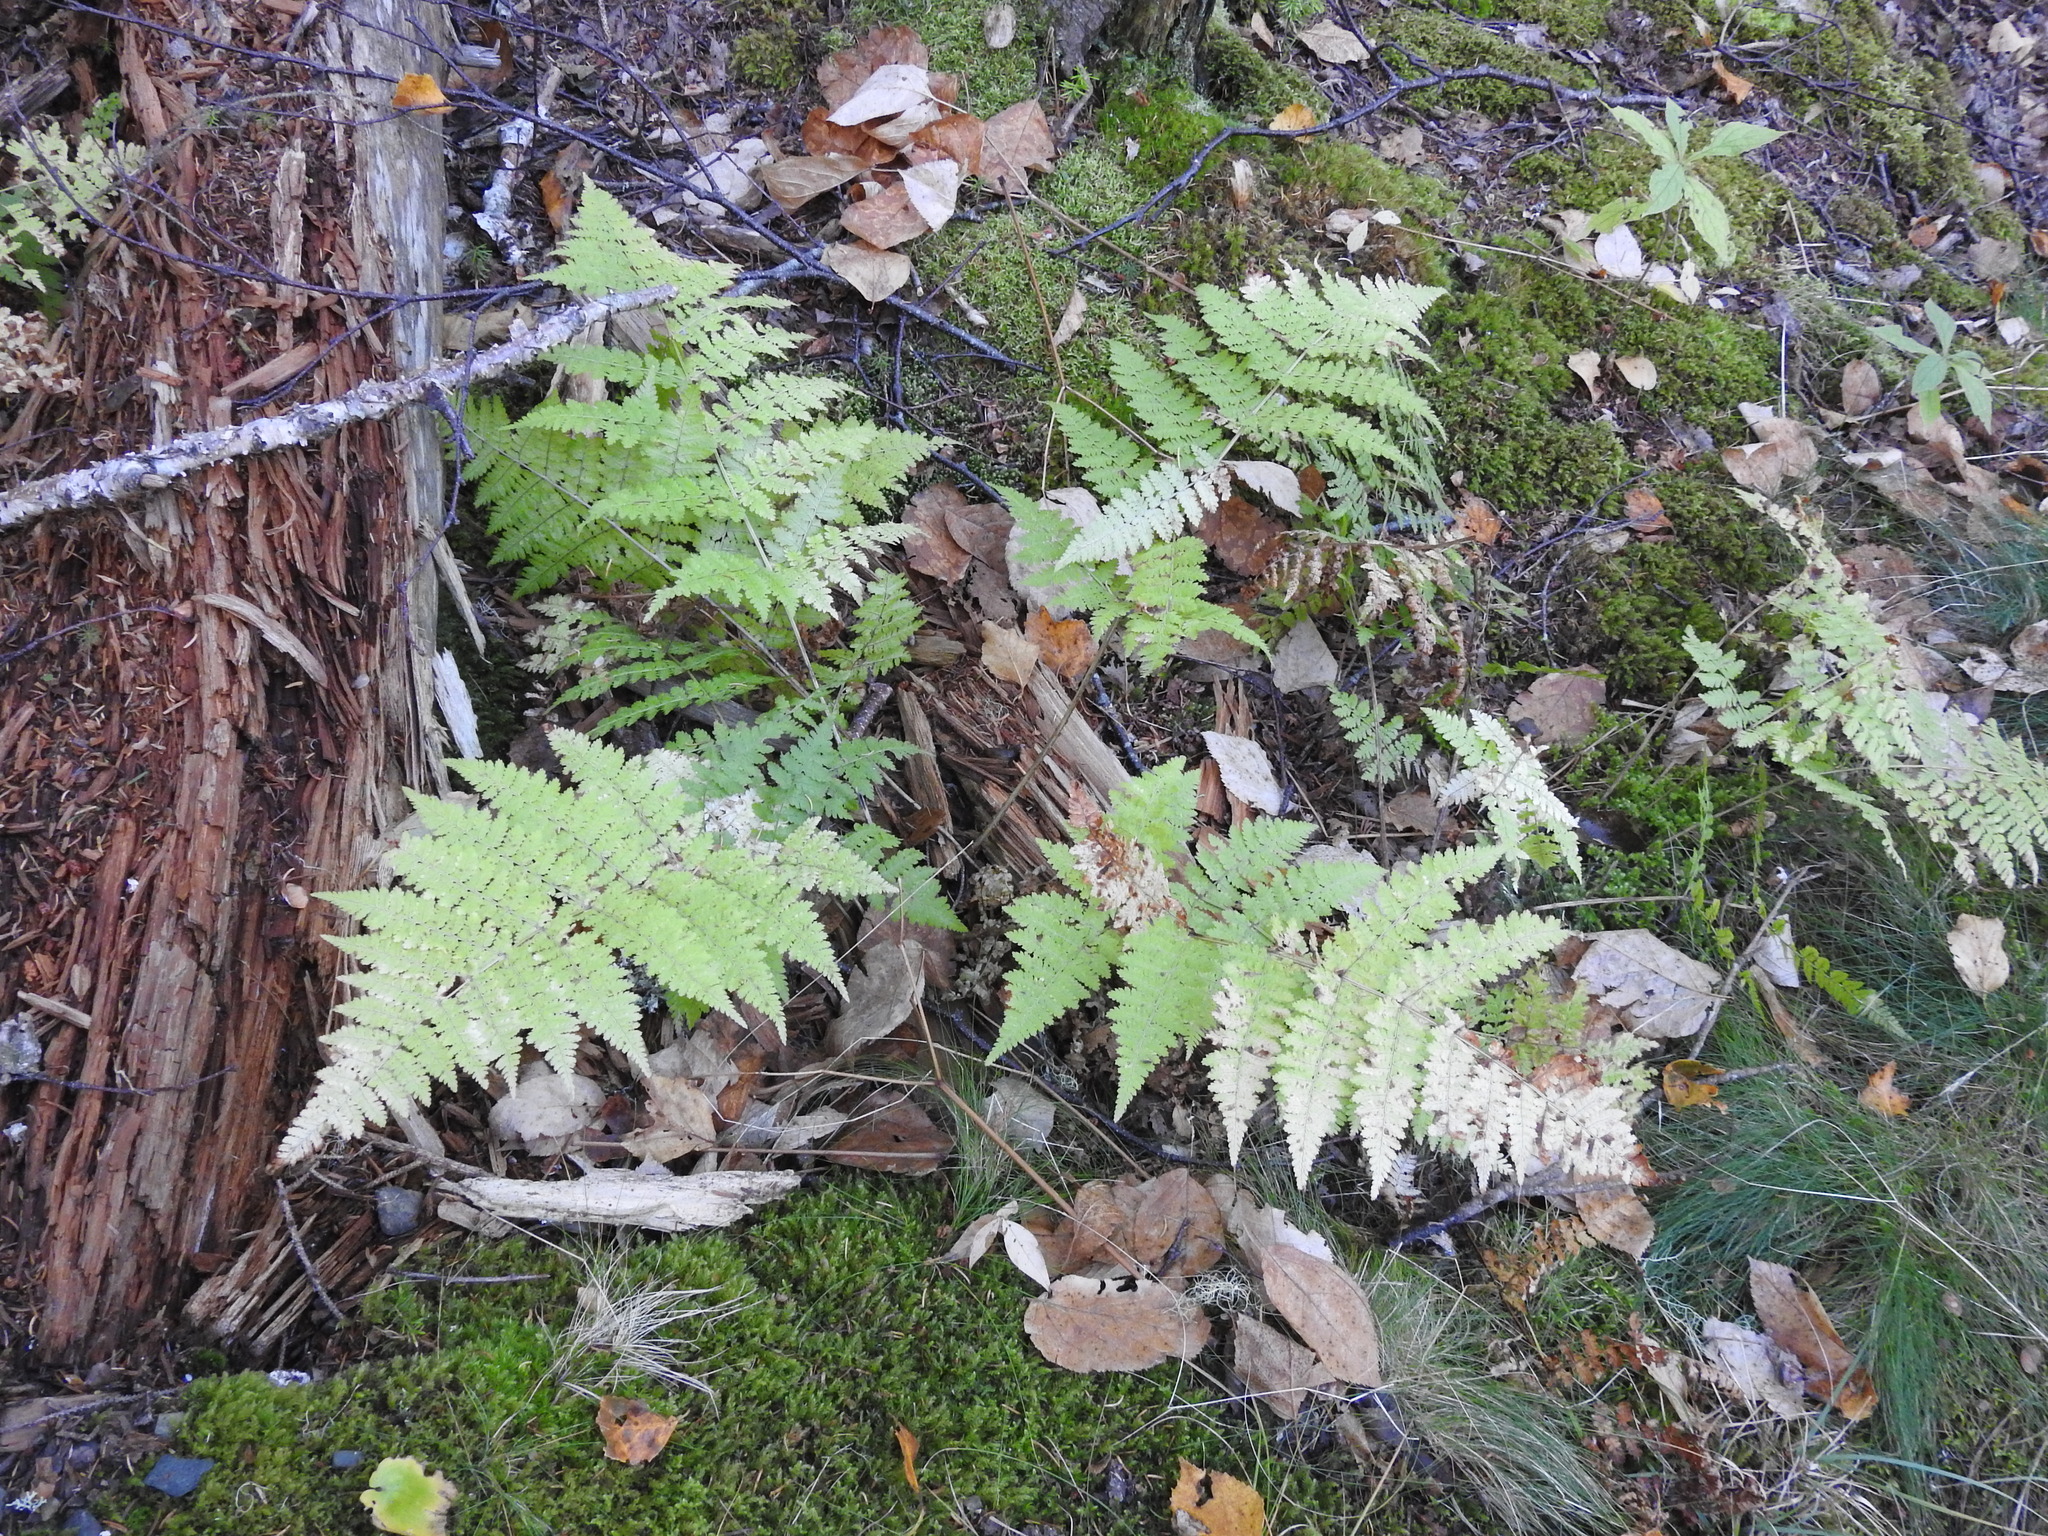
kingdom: Plantae
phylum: Tracheophyta
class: Polypodiopsida
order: Polypodiales
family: Dryopteridaceae
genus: Dryopteris
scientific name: Dryopteris campyloptera
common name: Mountain wood fern
